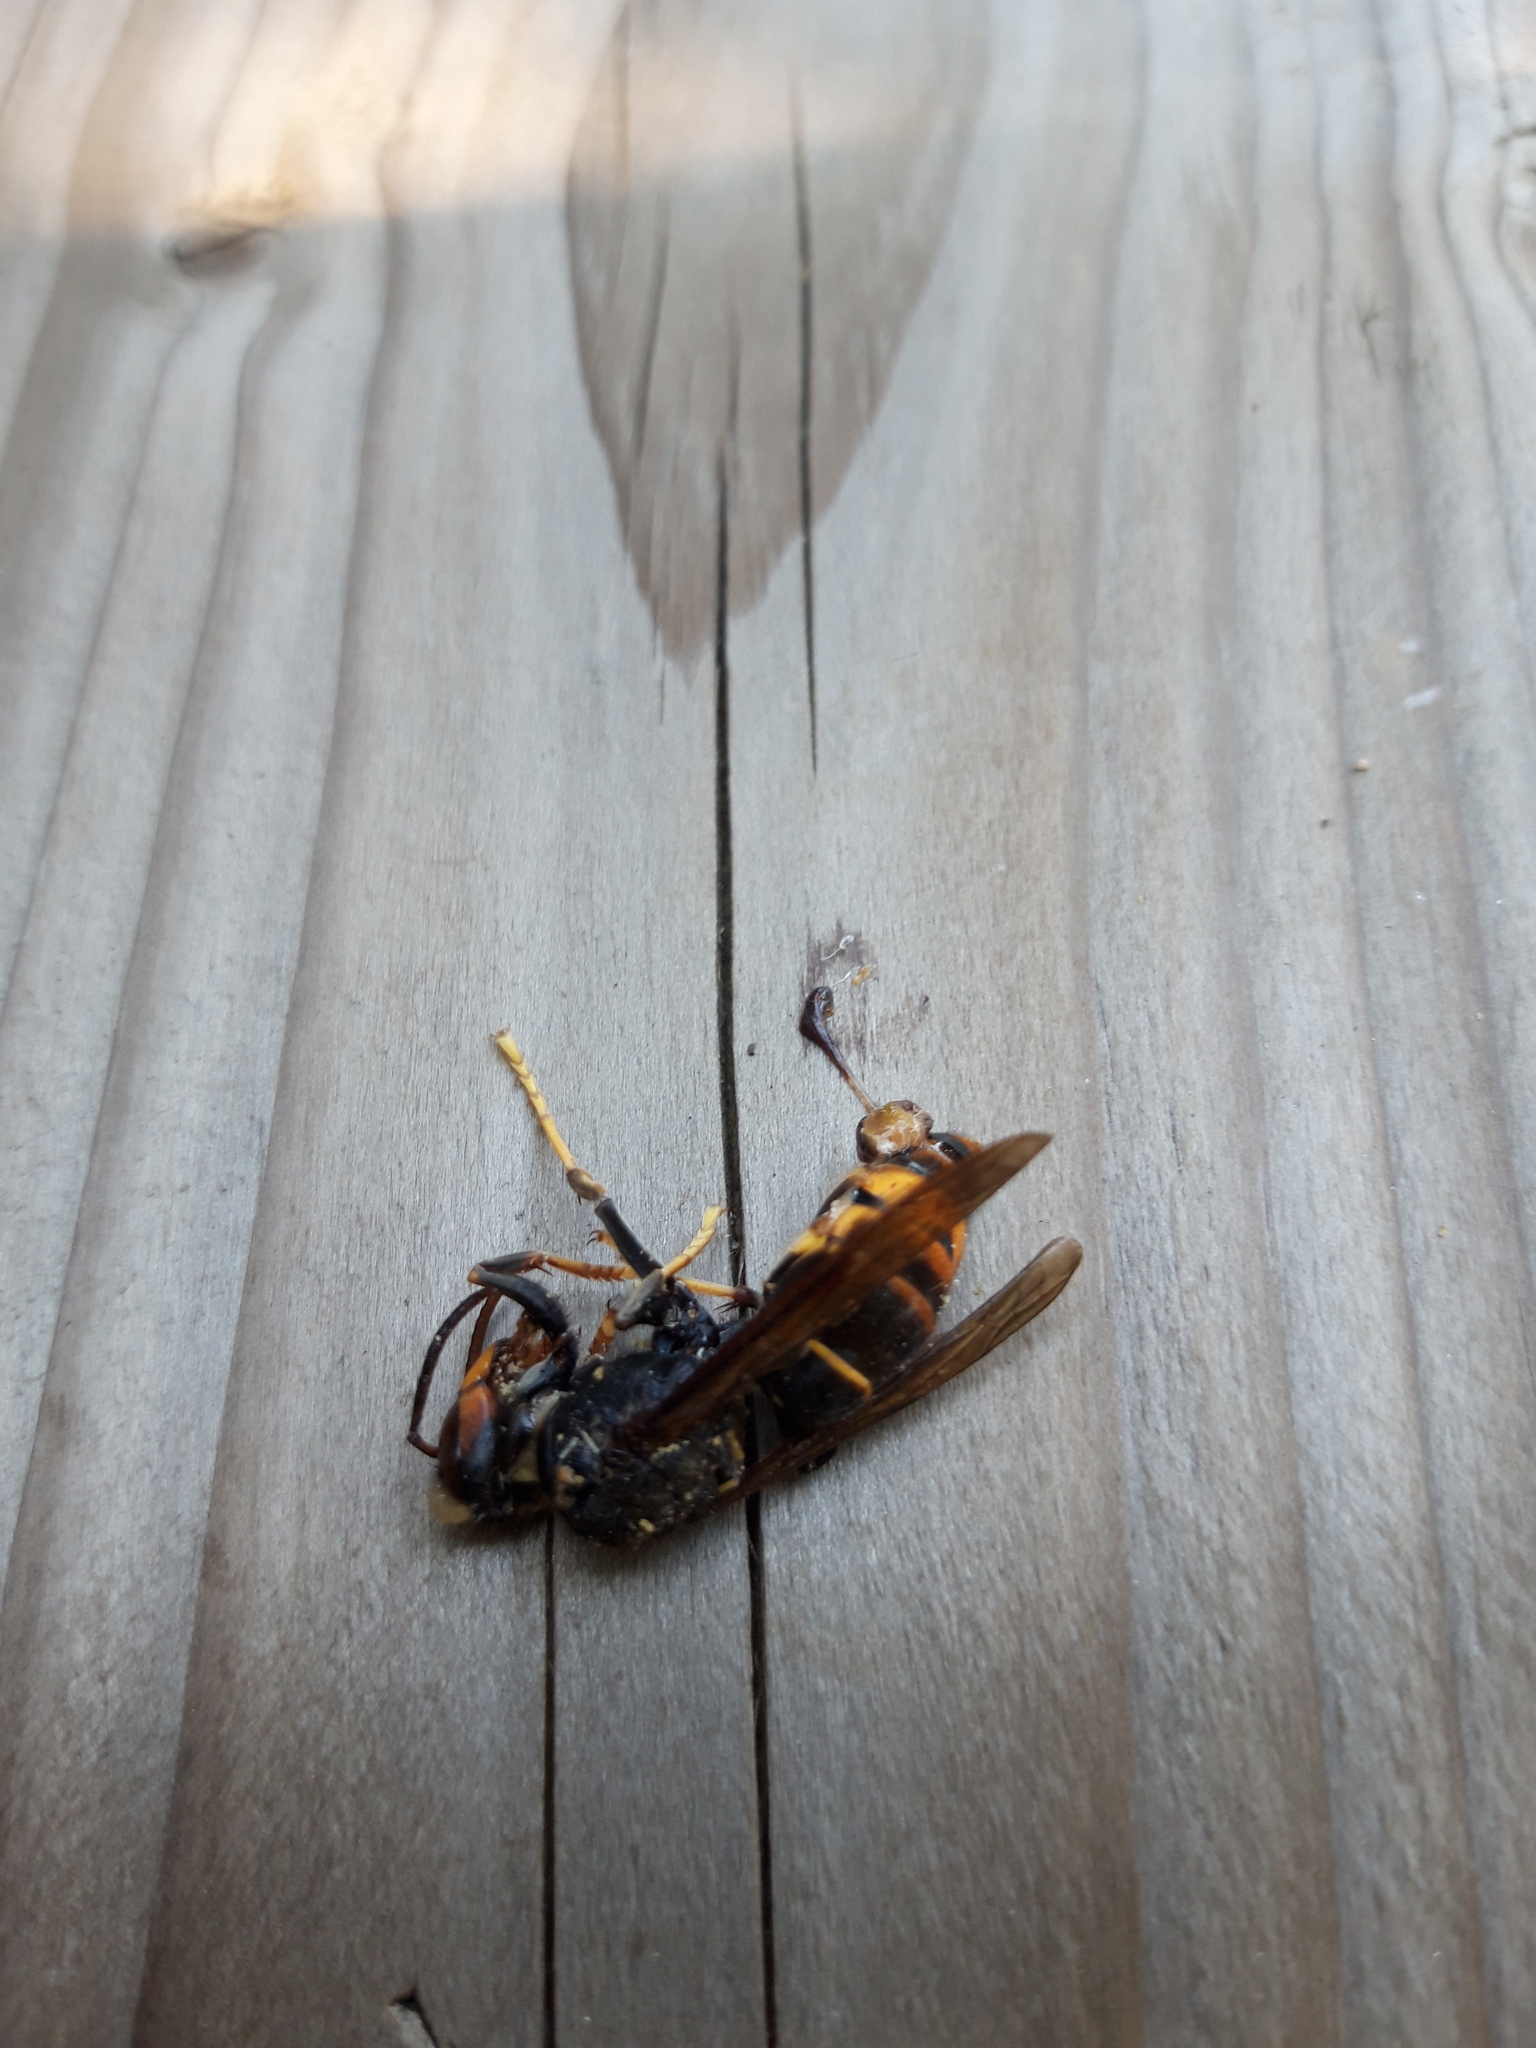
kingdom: Animalia
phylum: Arthropoda
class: Insecta
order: Hymenoptera
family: Vespidae
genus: Vespa
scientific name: Vespa velutina
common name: Asian hornet
